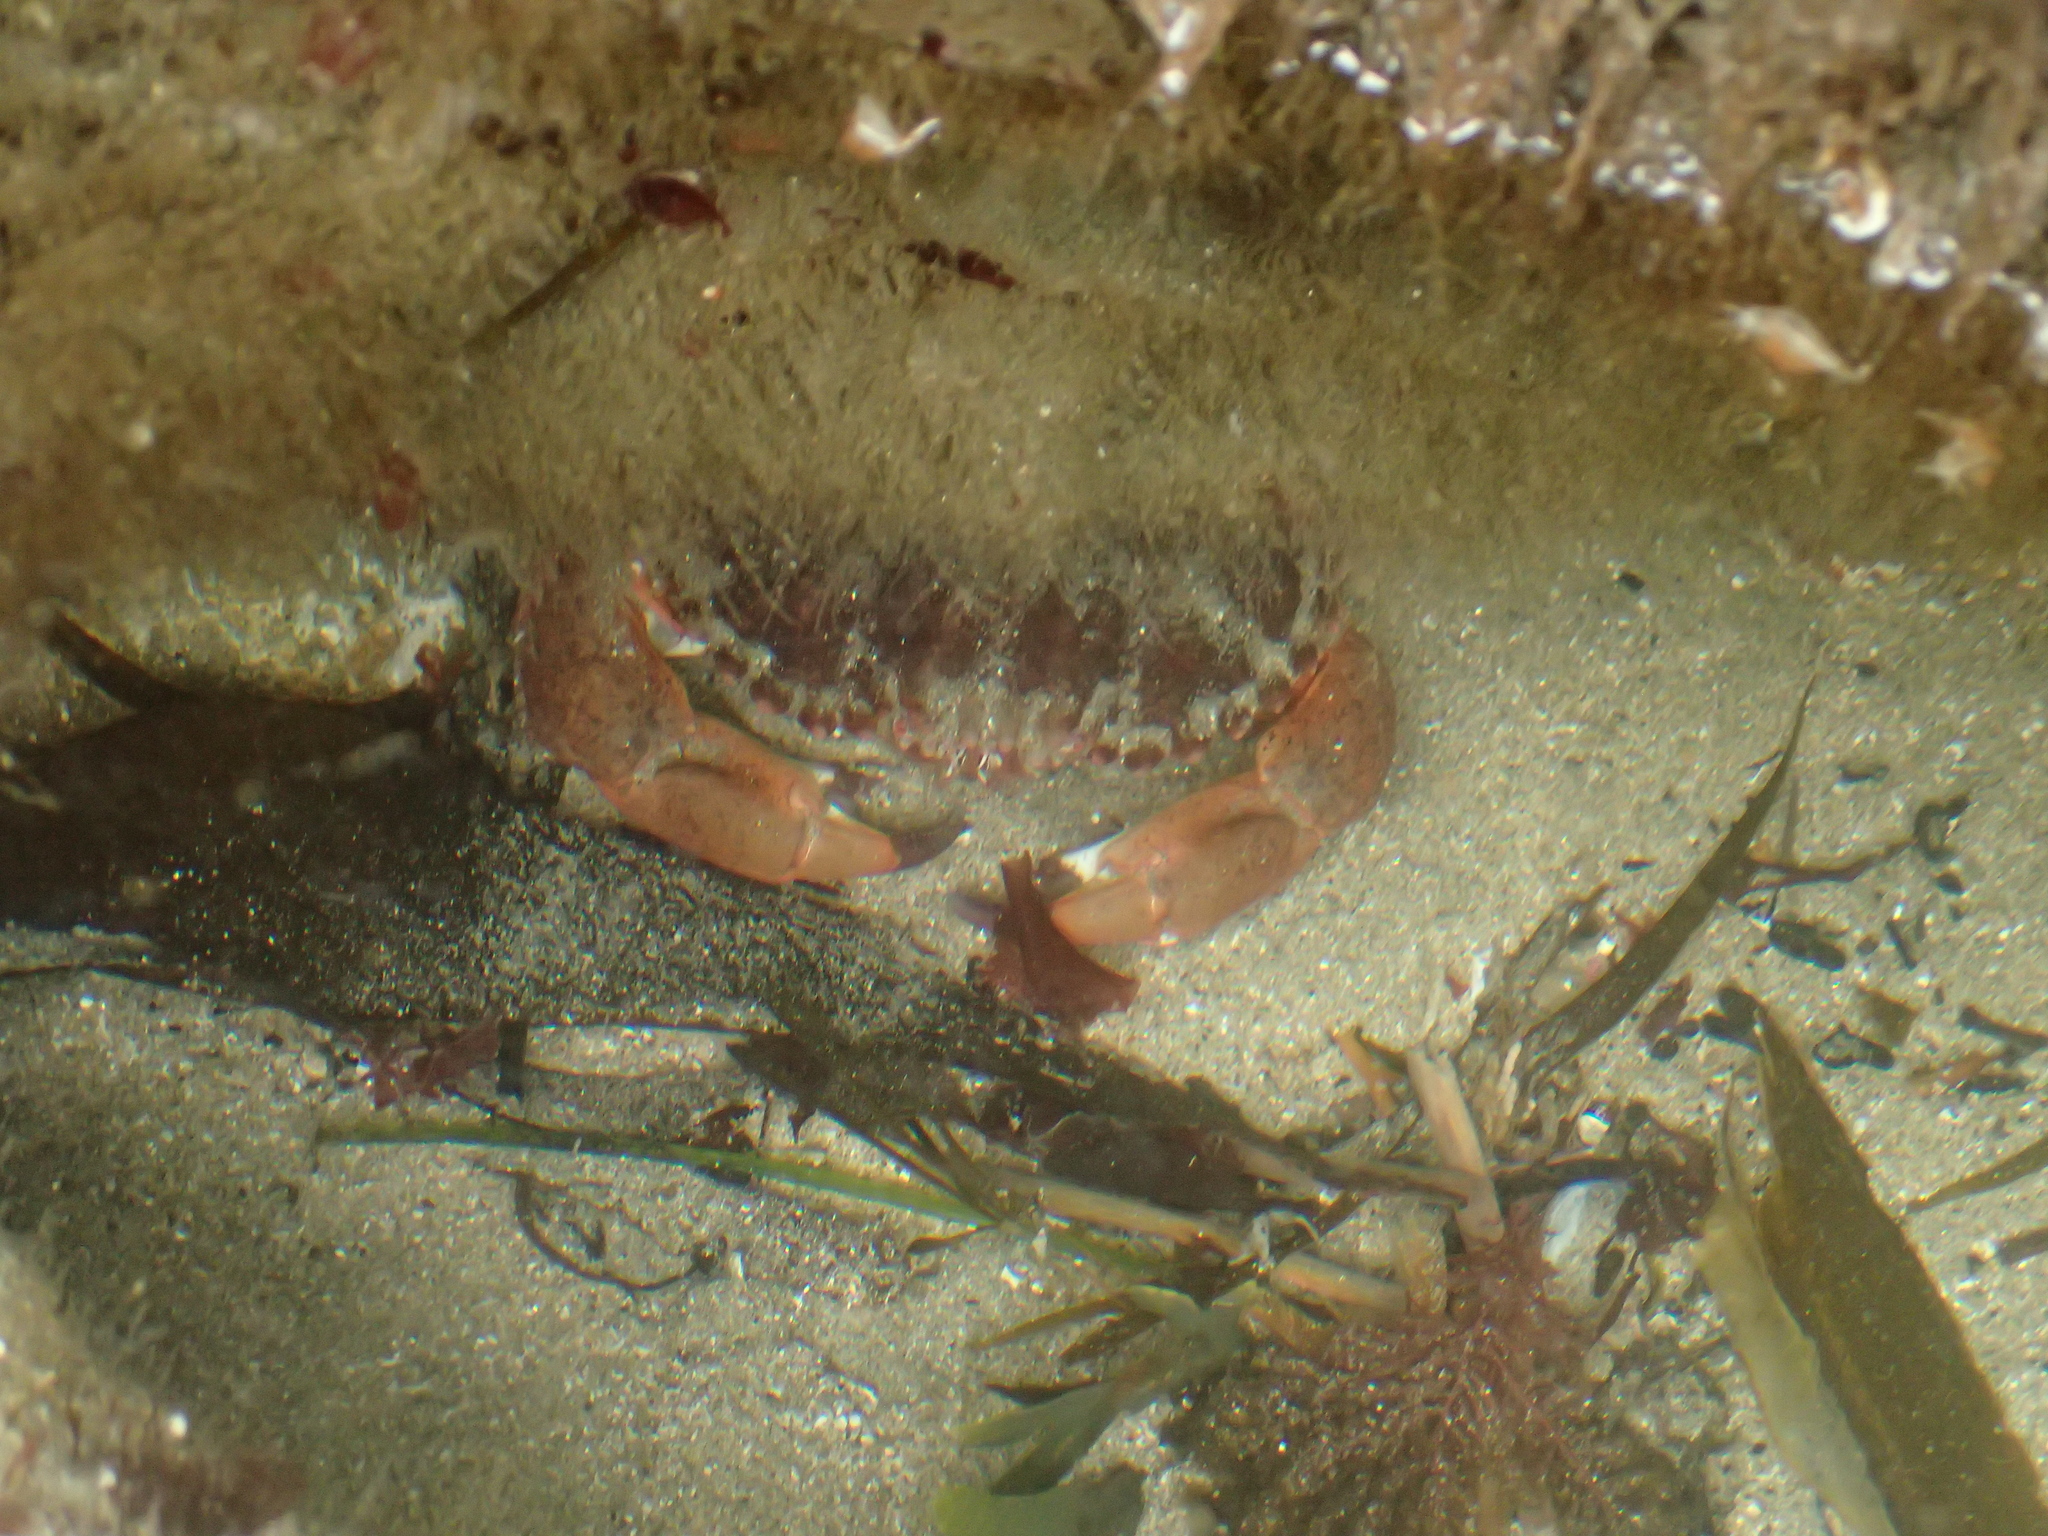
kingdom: Animalia
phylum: Arthropoda
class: Malacostraca
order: Decapoda
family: Cancridae
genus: Romaleon
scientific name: Romaleon antennarium
